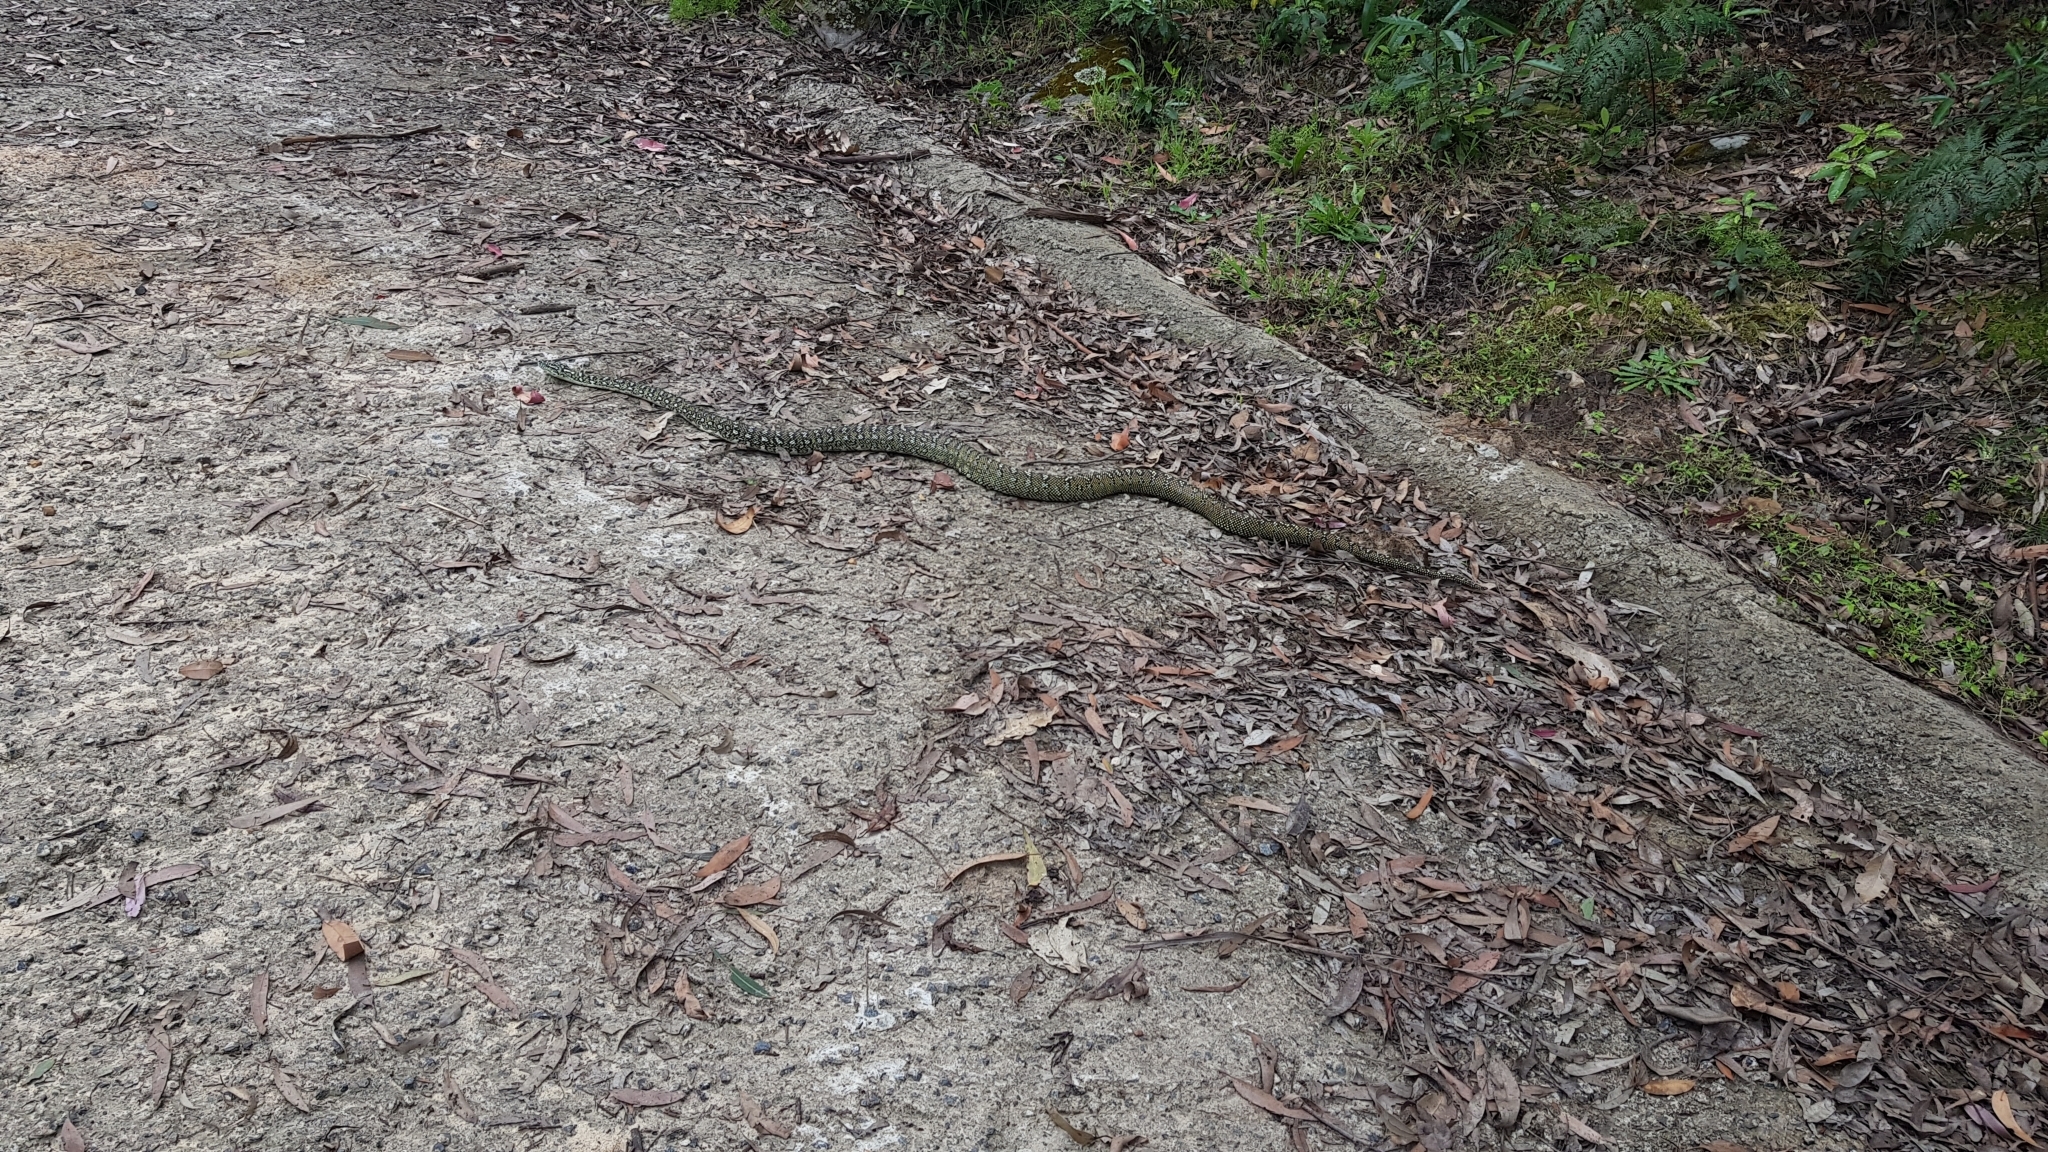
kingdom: Animalia
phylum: Chordata
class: Squamata
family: Pythonidae
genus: Morelia
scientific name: Morelia spilota
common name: Carpet python
